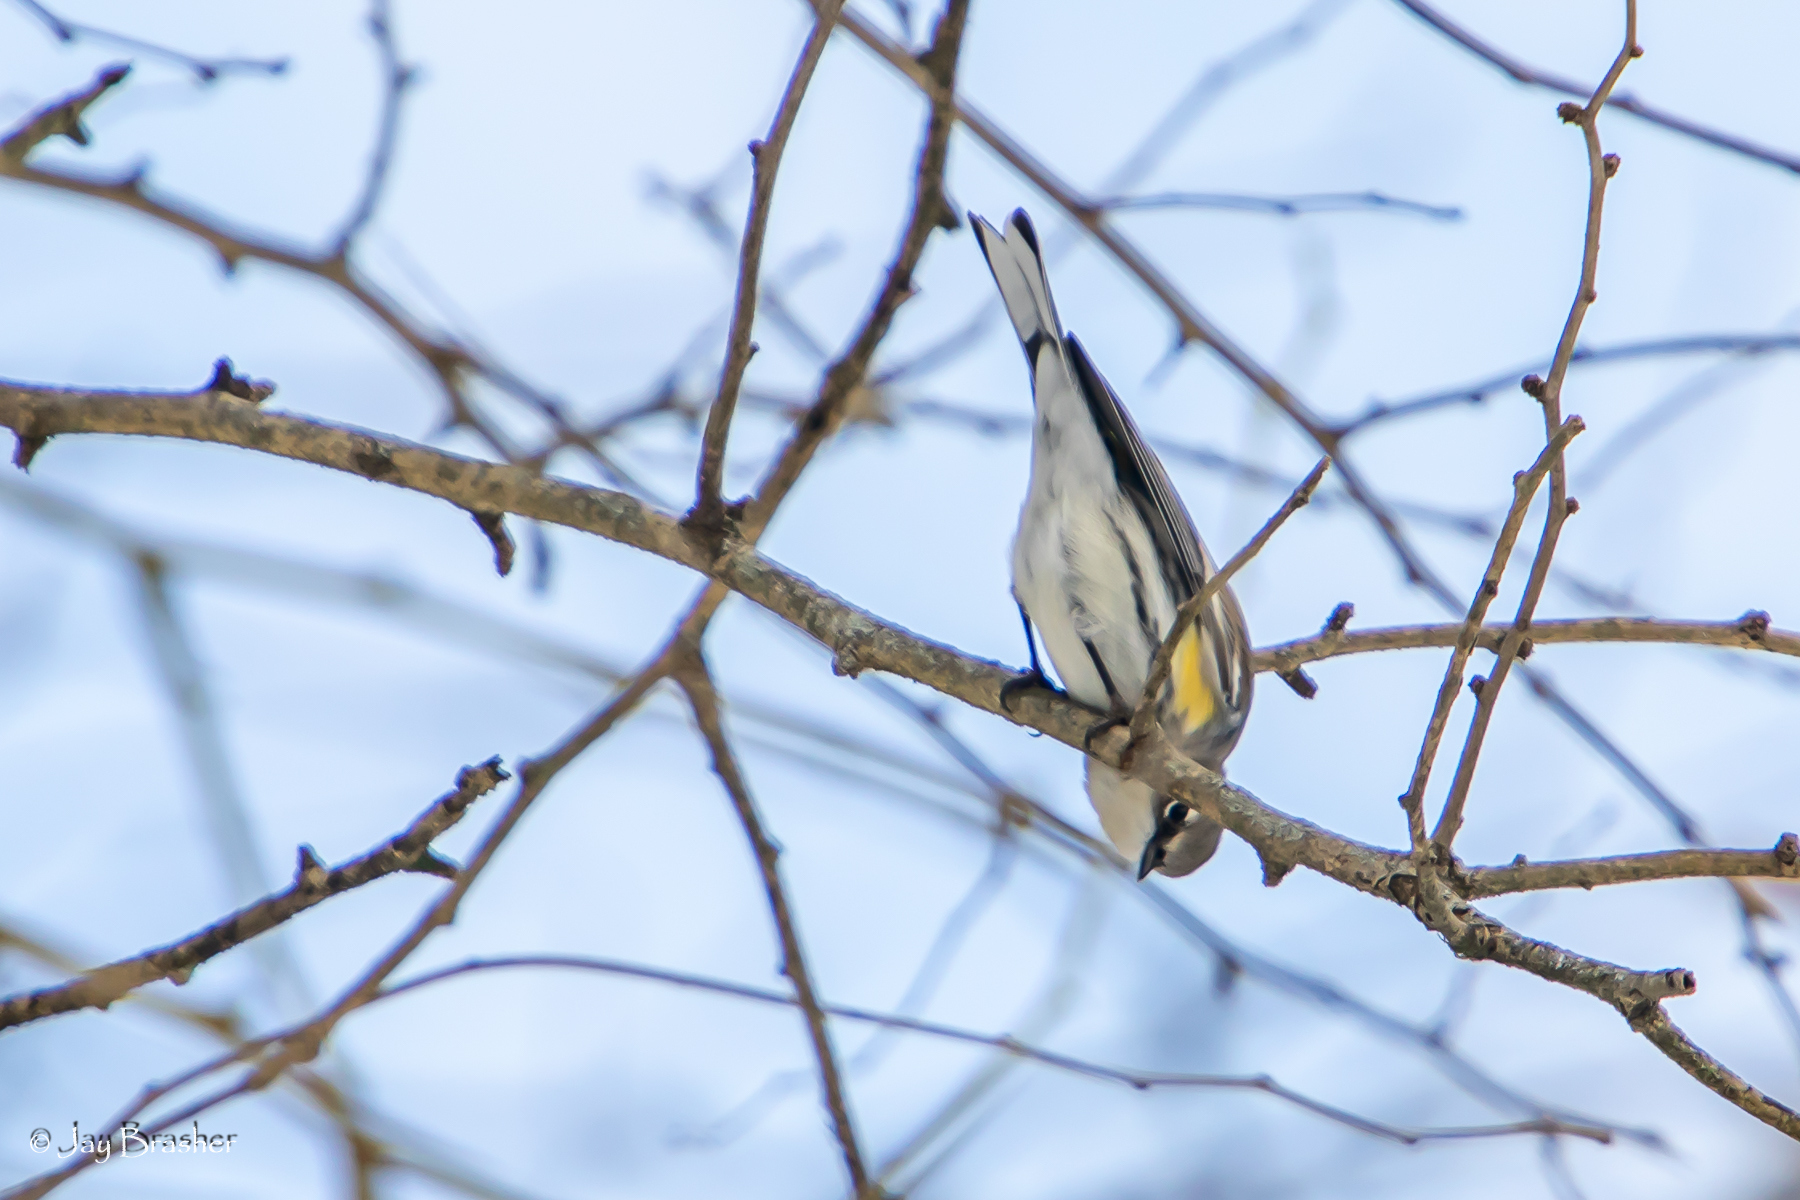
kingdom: Animalia
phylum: Chordata
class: Aves
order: Passeriformes
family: Parulidae
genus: Setophaga
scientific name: Setophaga coronata
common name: Myrtle warbler
